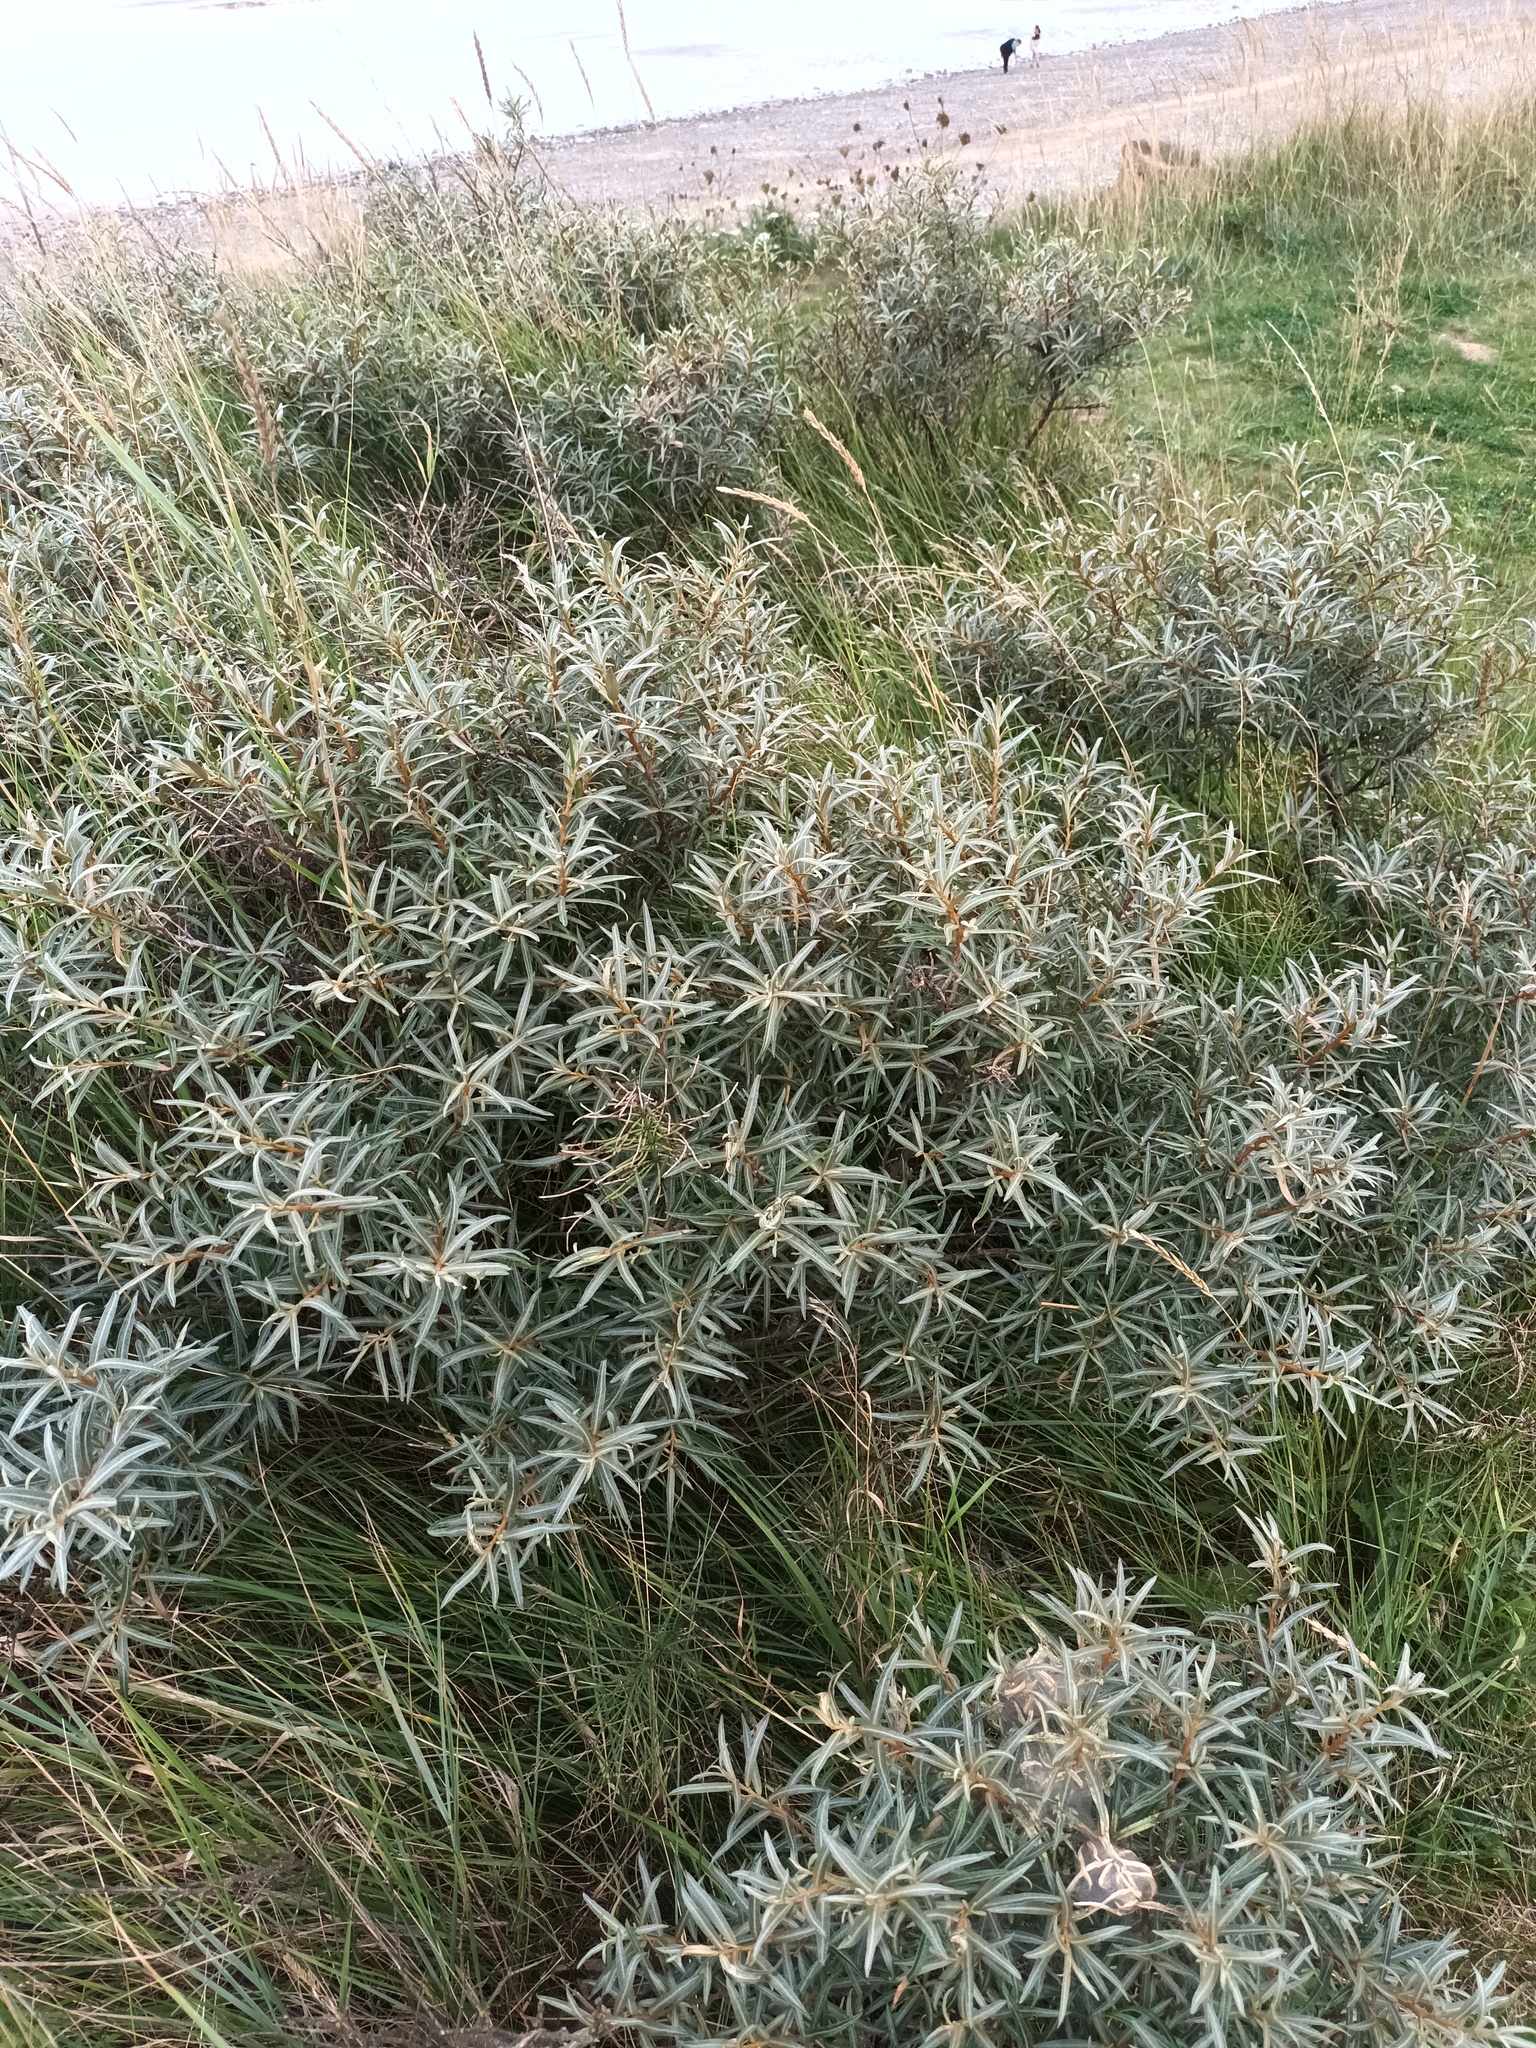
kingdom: Plantae
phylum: Tracheophyta
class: Magnoliopsida
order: Rosales
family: Elaeagnaceae
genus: Hippophae
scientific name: Hippophae rhamnoides
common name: Sea-buckthorn
